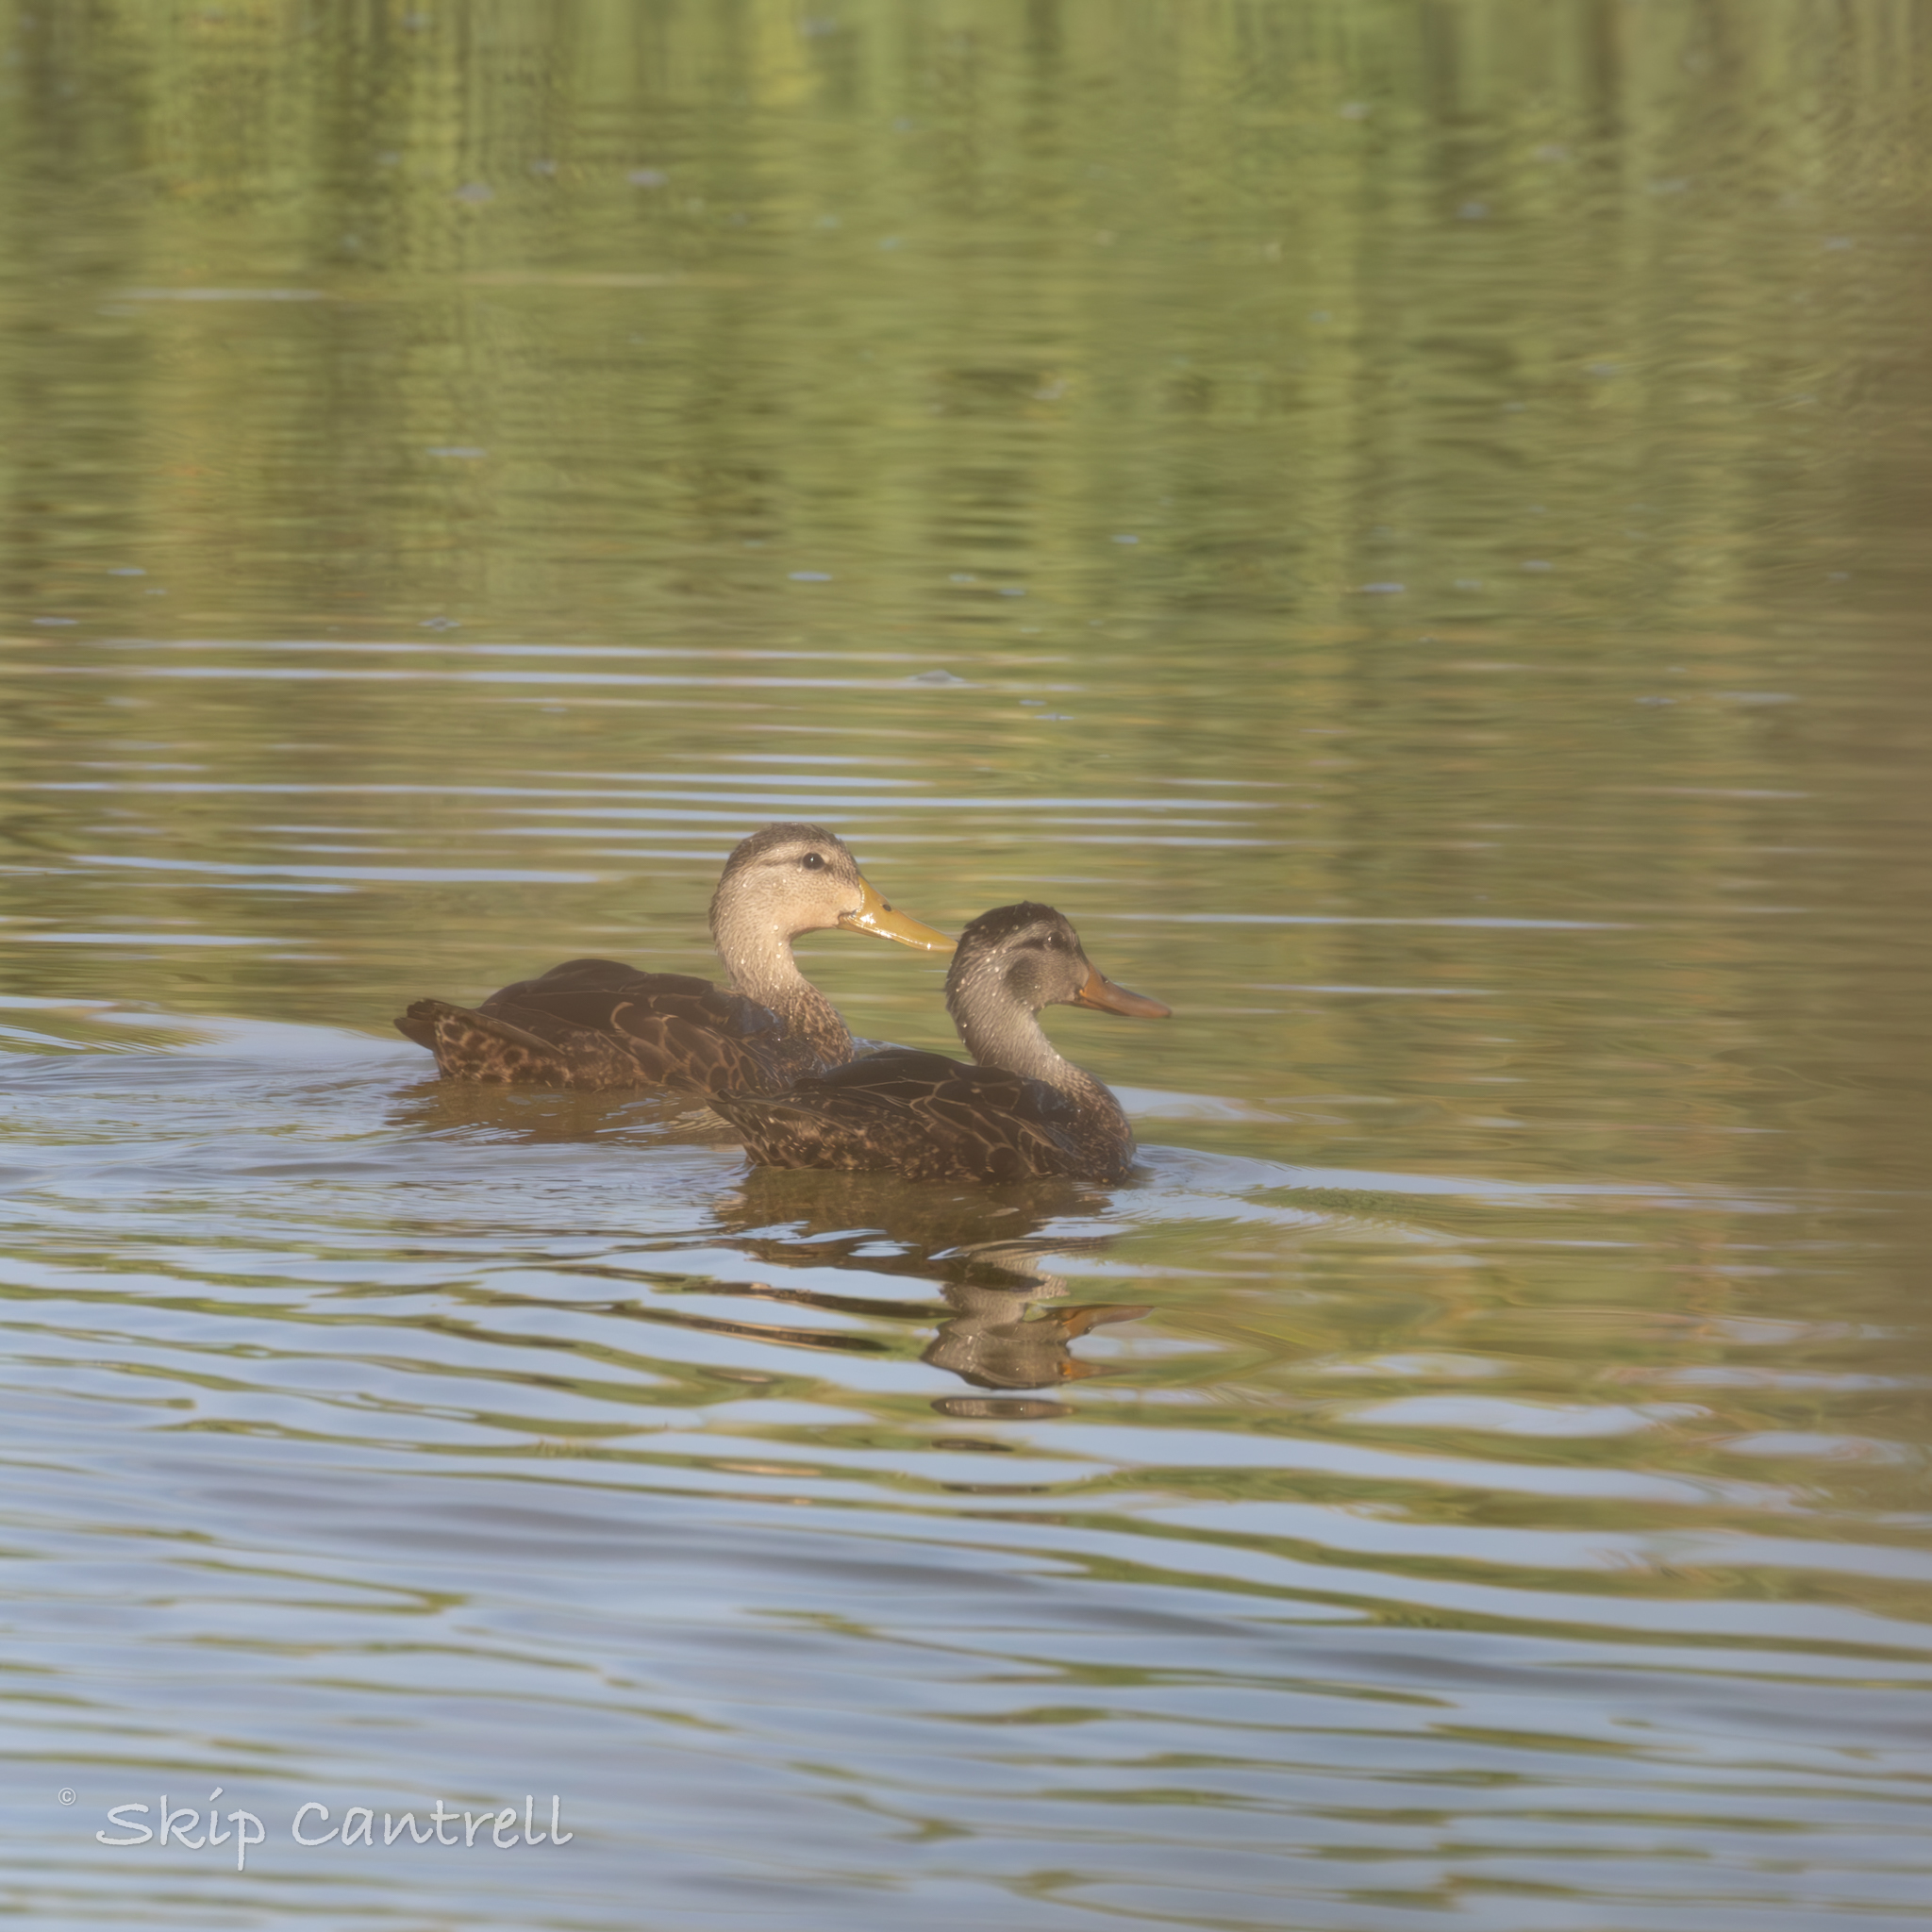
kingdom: Animalia
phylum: Chordata
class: Aves
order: Anseriformes
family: Anatidae
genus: Anas
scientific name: Anas fulvigula
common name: Mottled duck
